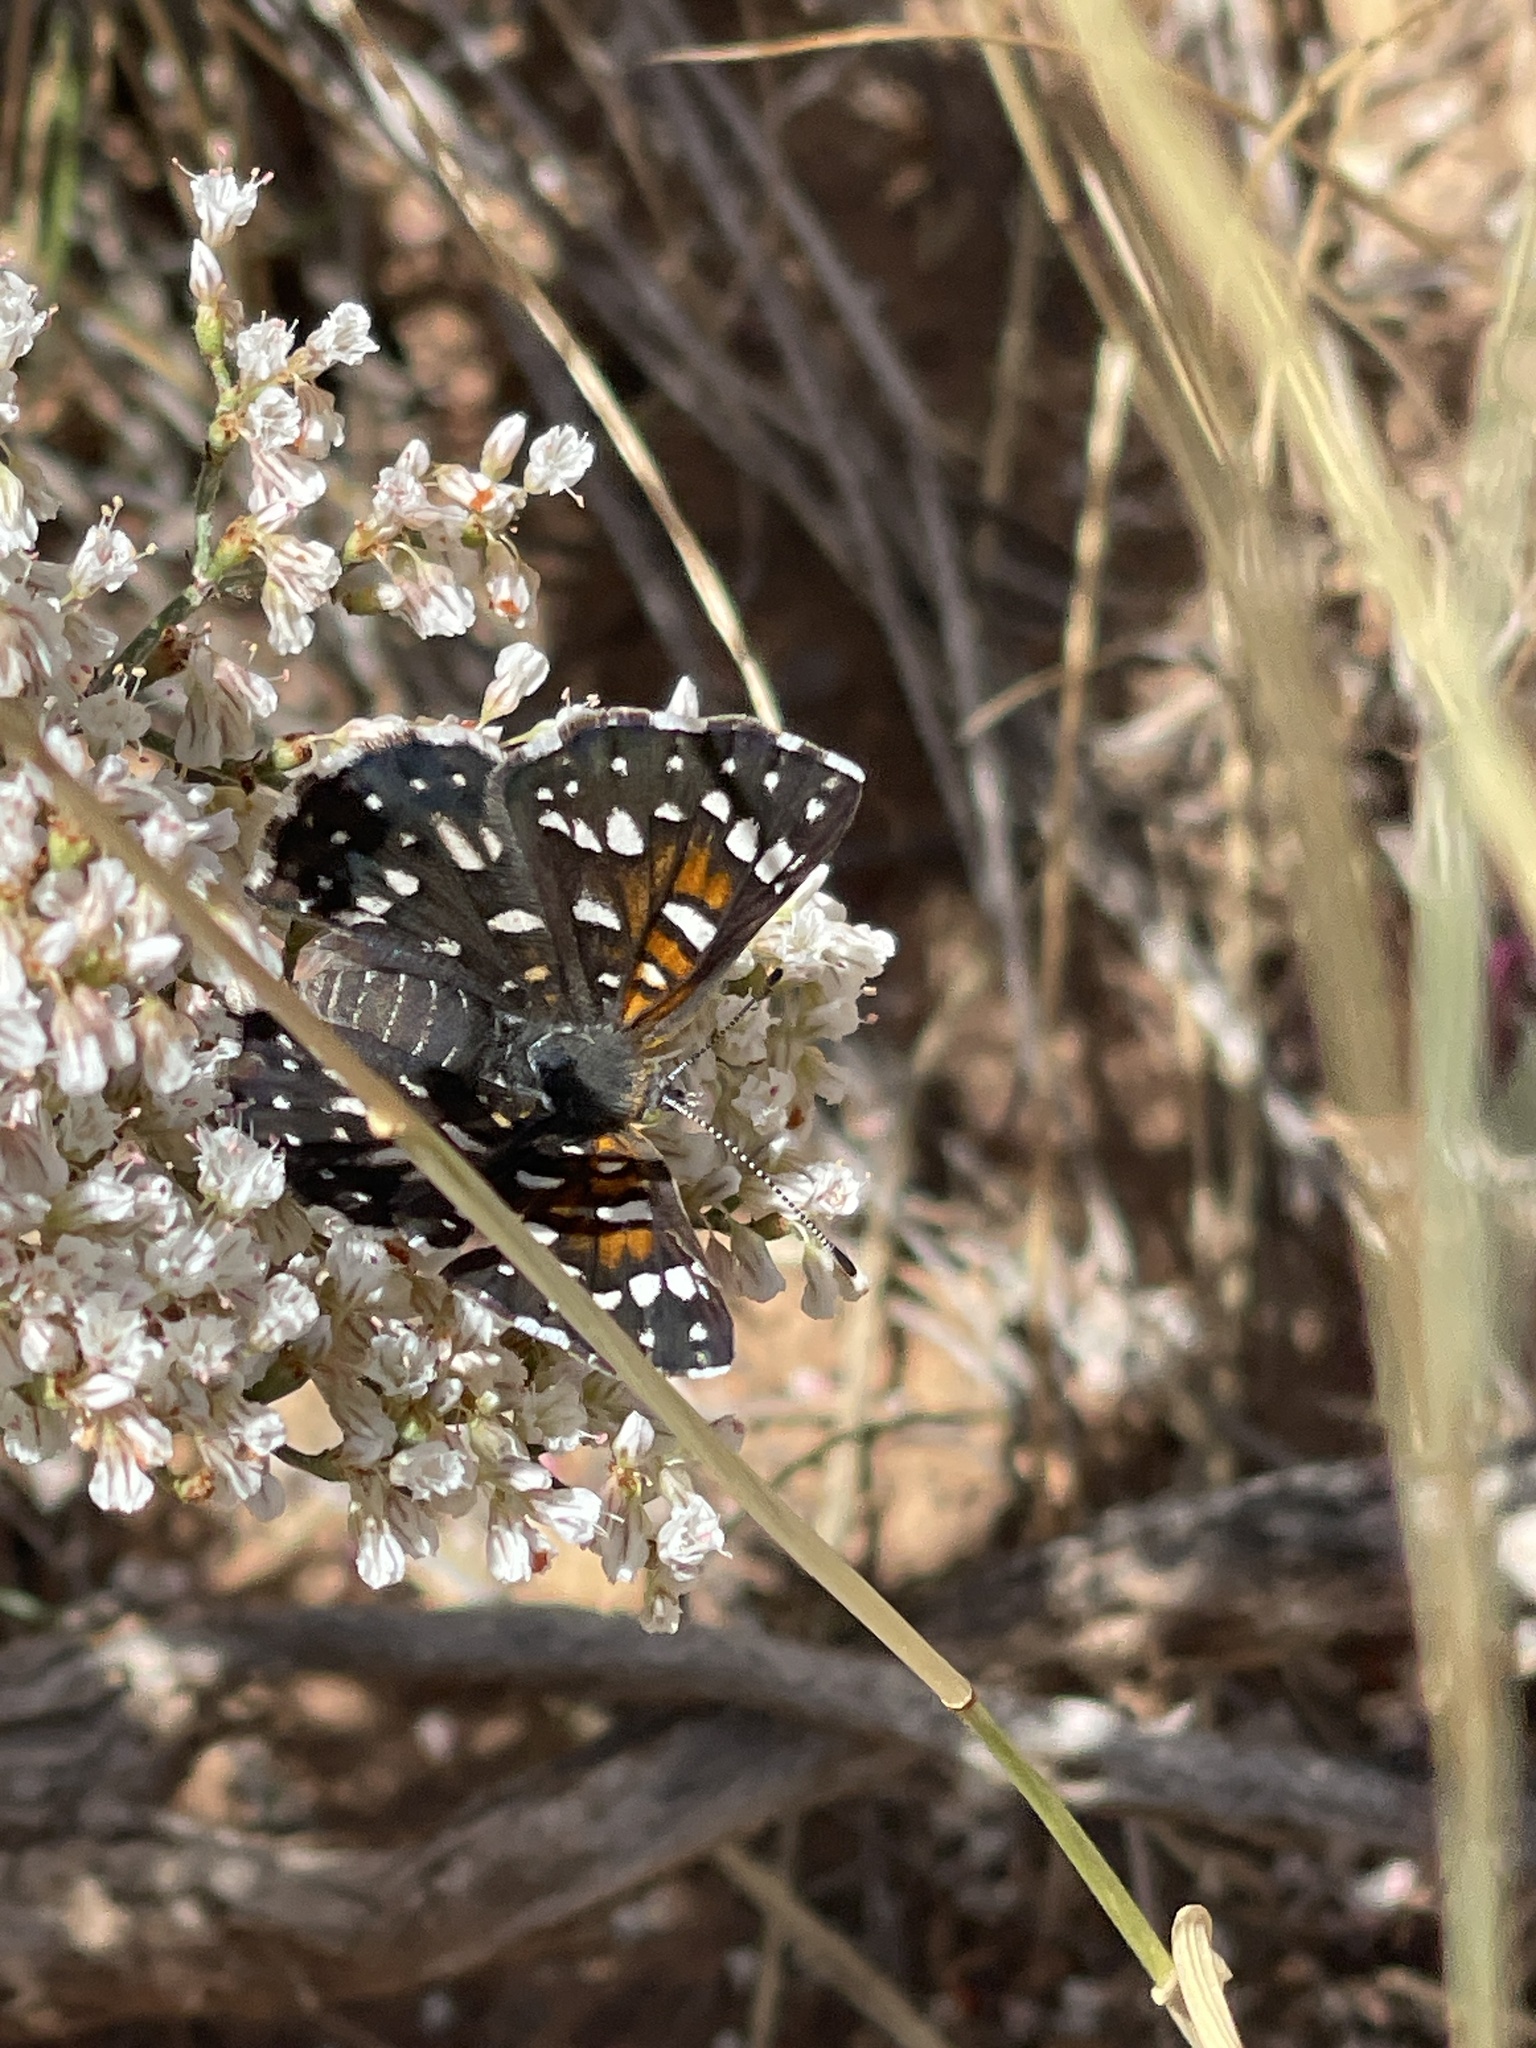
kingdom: Animalia
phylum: Arthropoda
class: Insecta
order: Lepidoptera
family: Riodinidae
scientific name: Riodinidae
